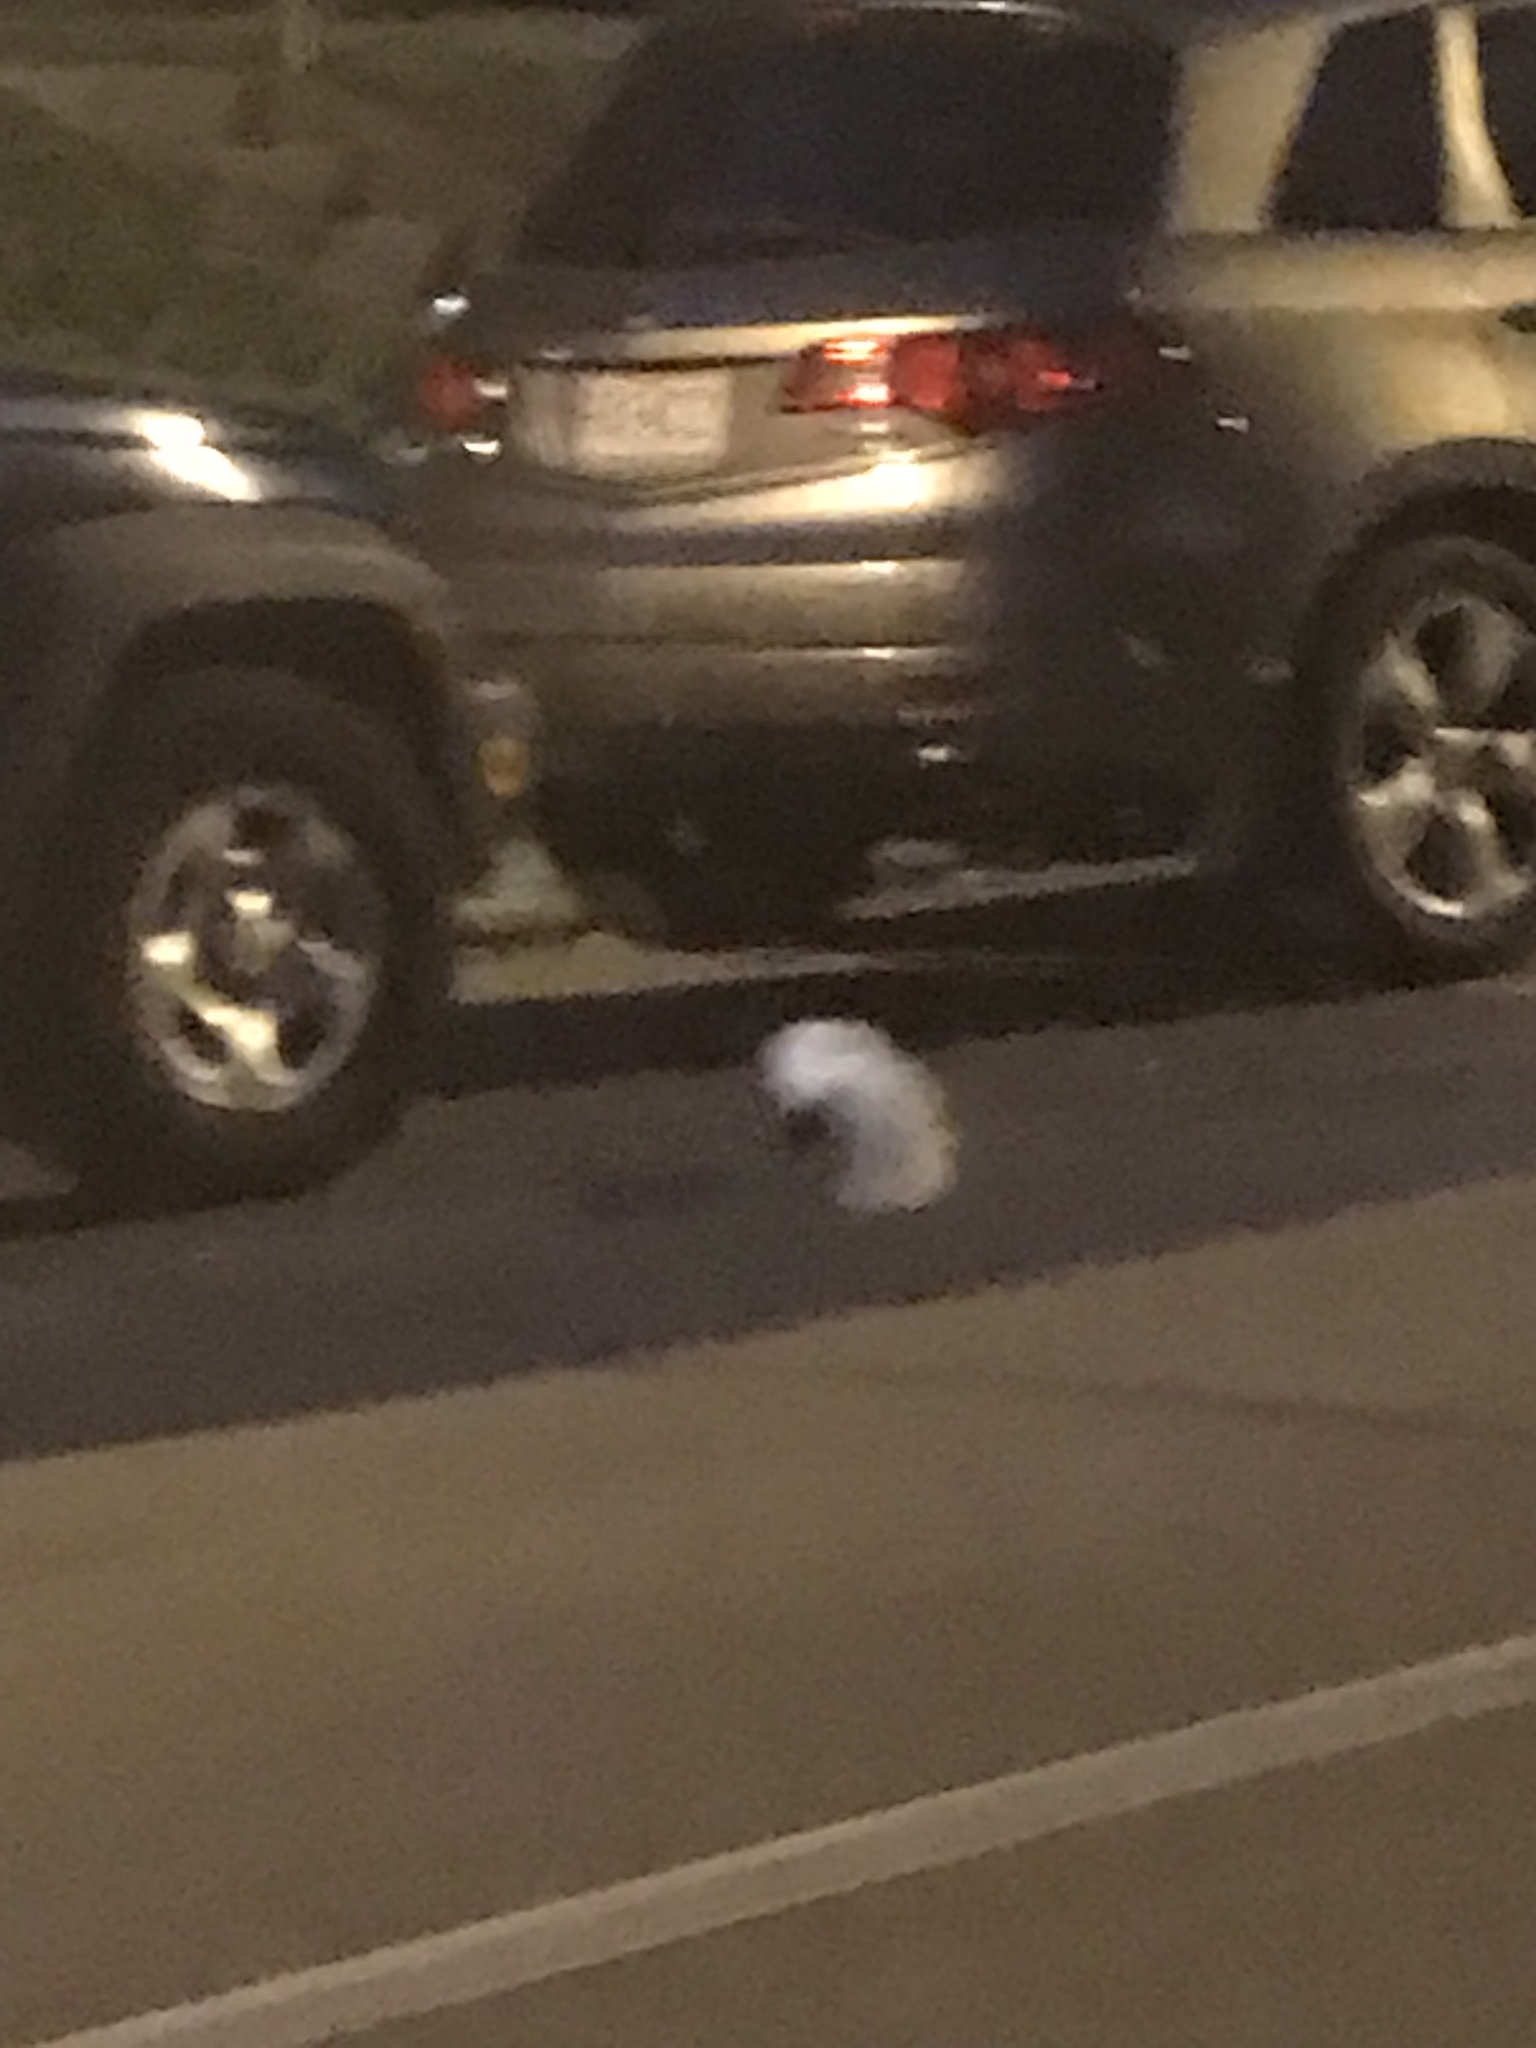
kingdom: Animalia
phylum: Chordata
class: Mammalia
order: Carnivora
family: Mephitidae
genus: Mephitis
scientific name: Mephitis mephitis
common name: Striped skunk
